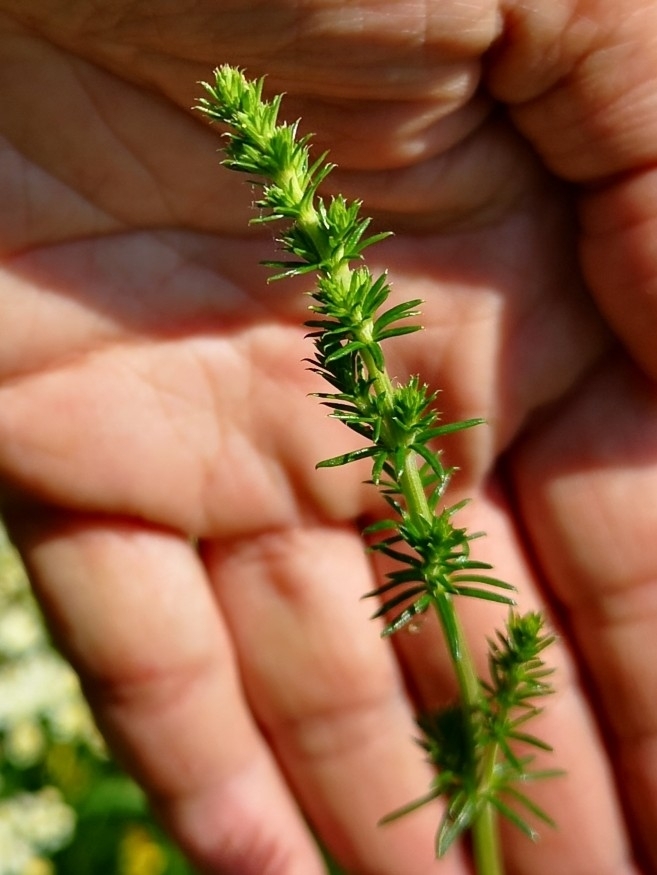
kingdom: Plantae
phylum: Tracheophyta
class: Magnoliopsida
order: Gentianales
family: Rubiaceae
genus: Galium
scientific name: Galium verum
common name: Lady's bedstraw
